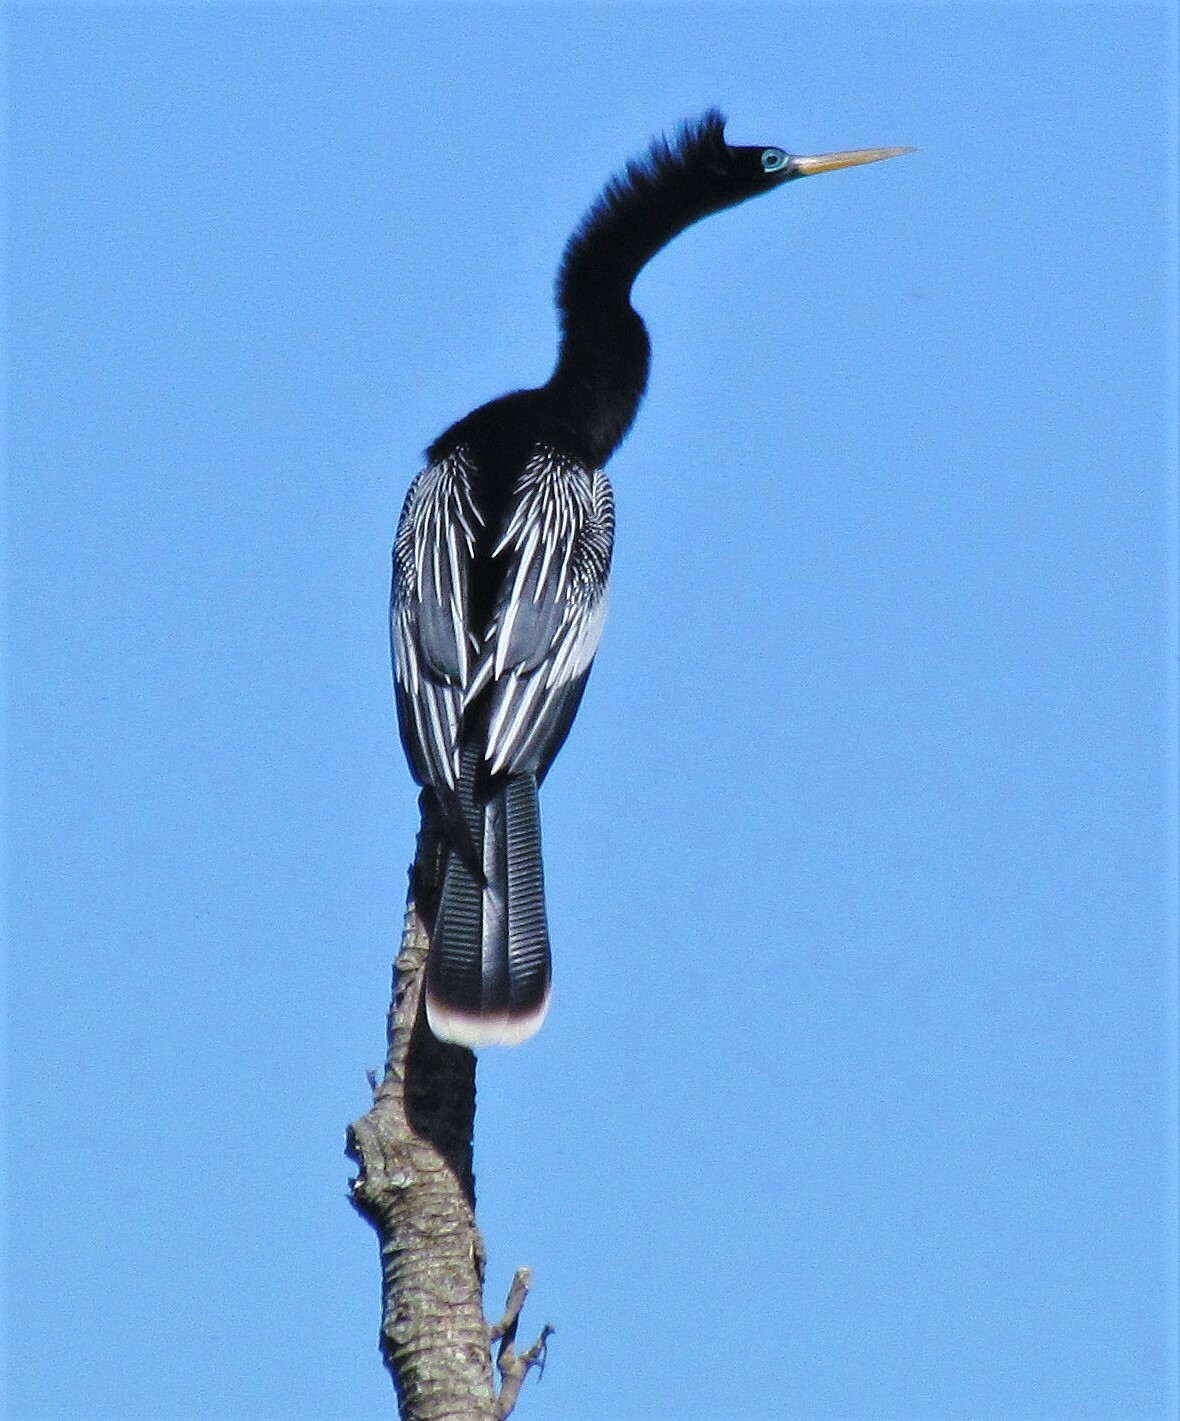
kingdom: Animalia
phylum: Chordata
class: Aves
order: Suliformes
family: Anhingidae
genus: Anhinga
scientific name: Anhinga anhinga
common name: Anhinga
